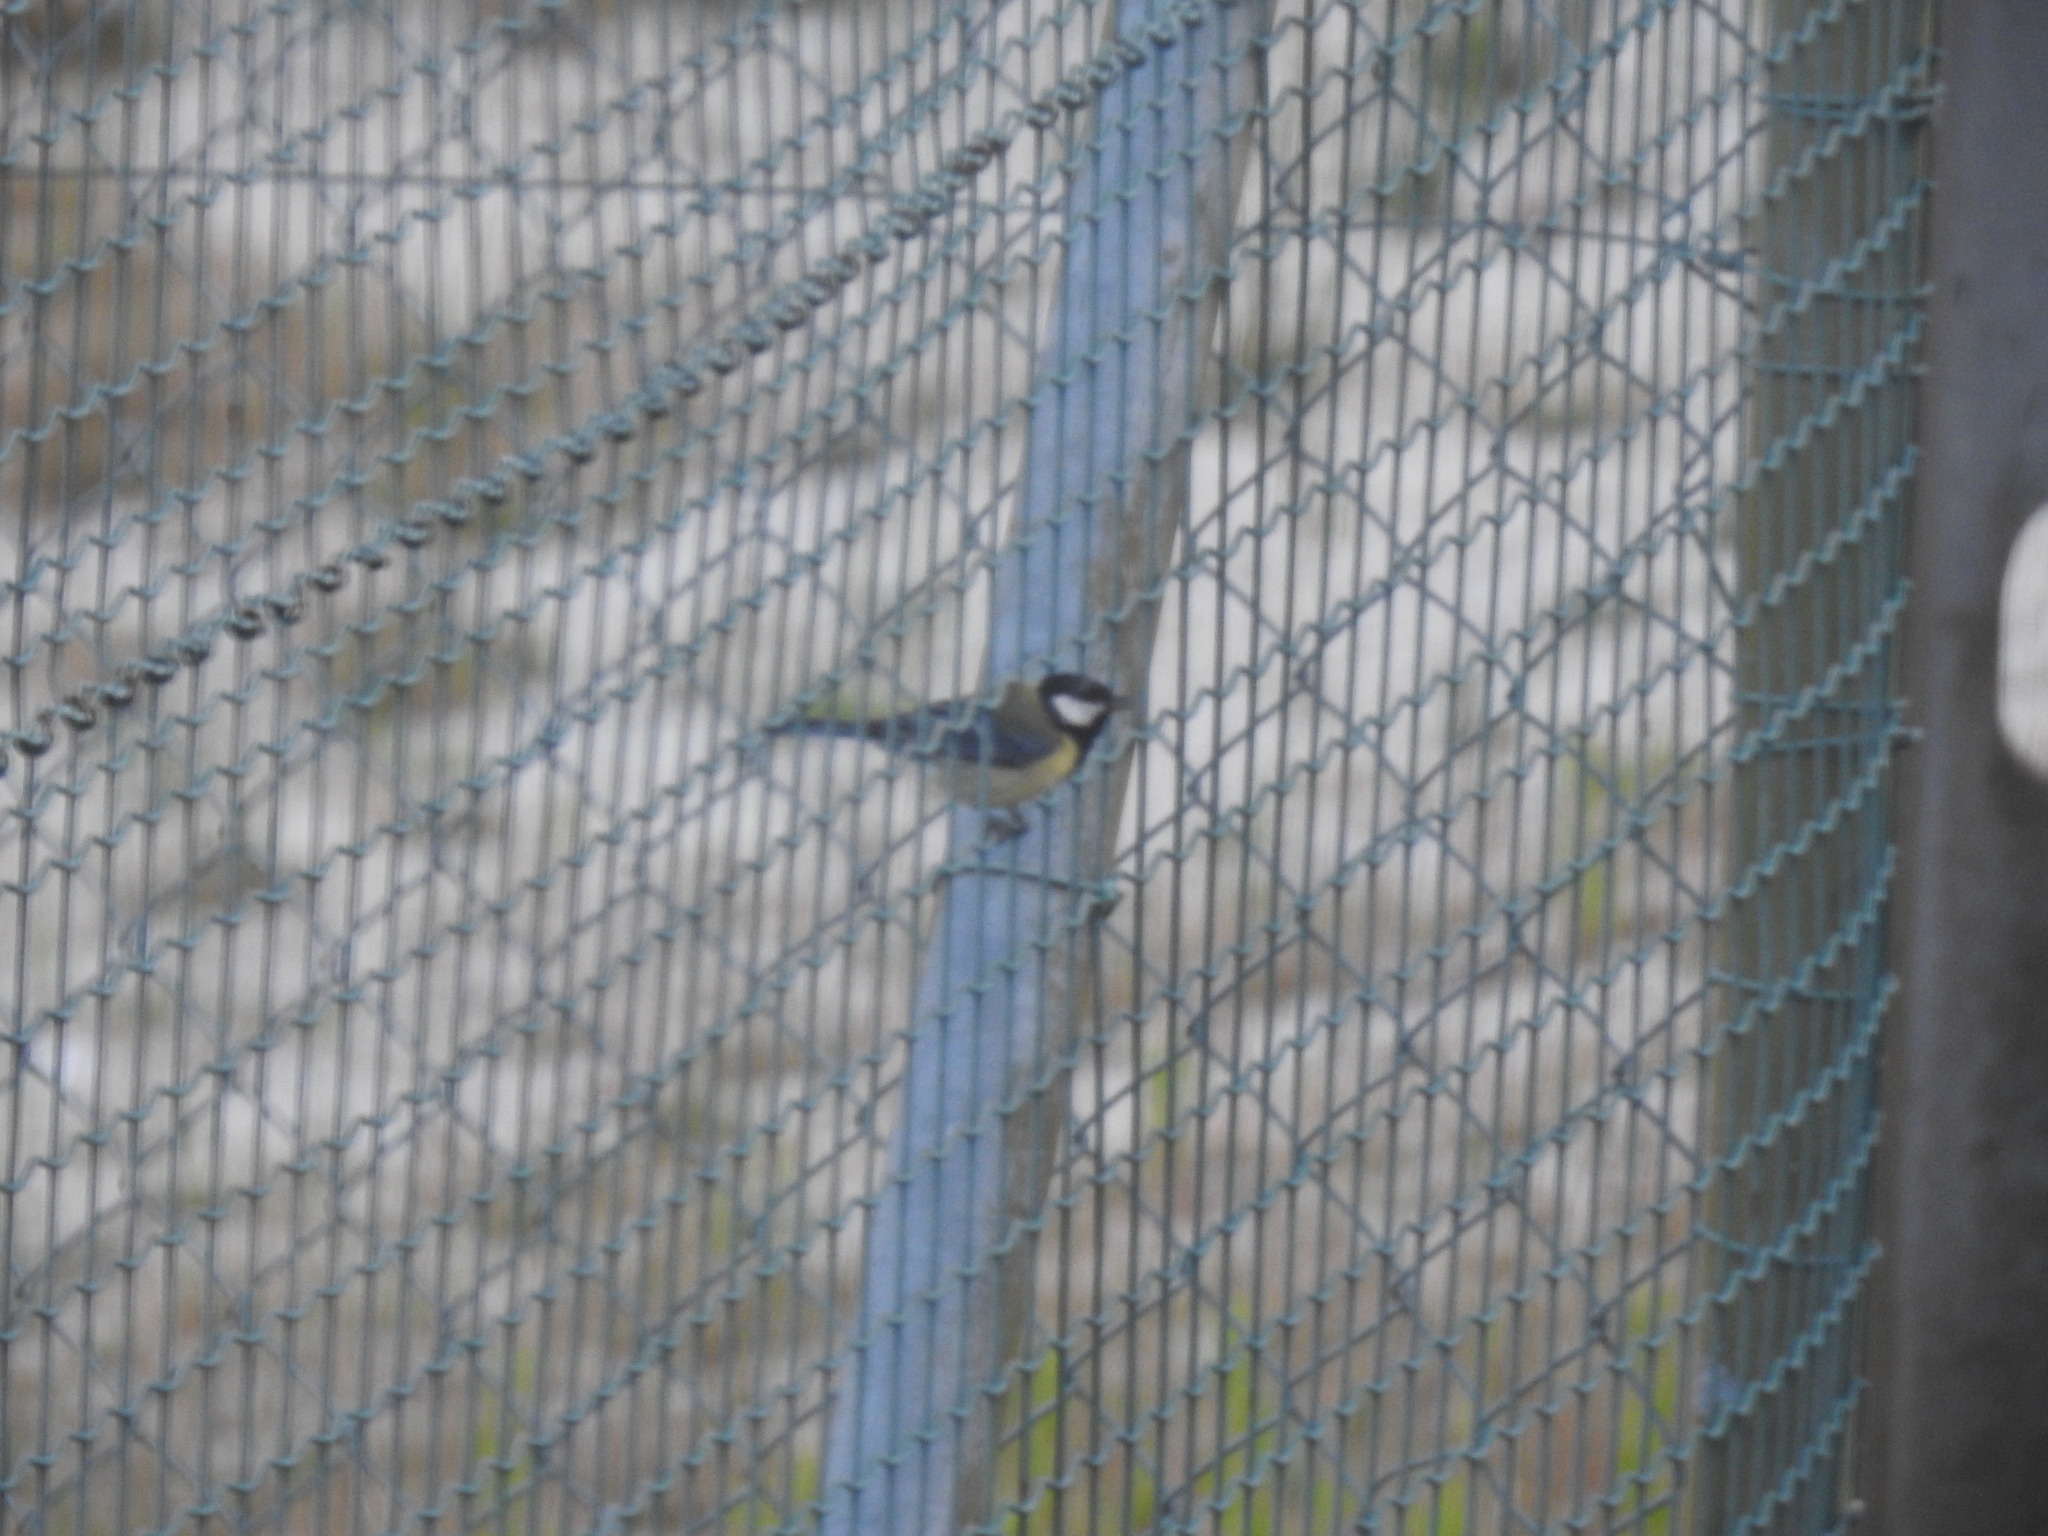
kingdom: Animalia
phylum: Chordata
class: Aves
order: Passeriformes
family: Paridae
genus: Parus
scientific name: Parus major
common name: Great tit
